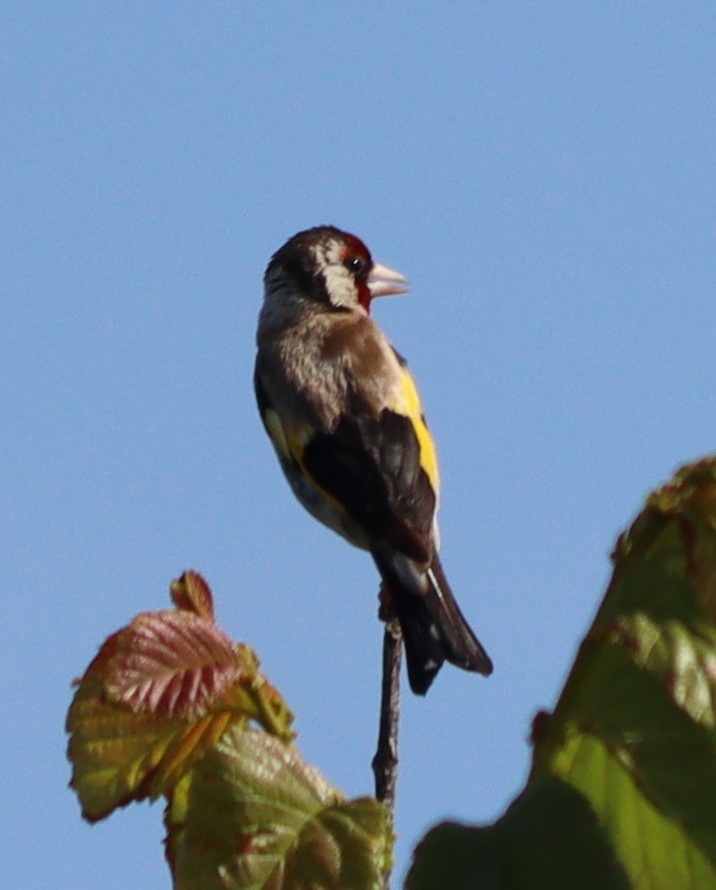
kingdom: Animalia
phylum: Chordata
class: Aves
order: Passeriformes
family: Fringillidae
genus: Carduelis
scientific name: Carduelis carduelis
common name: European goldfinch
